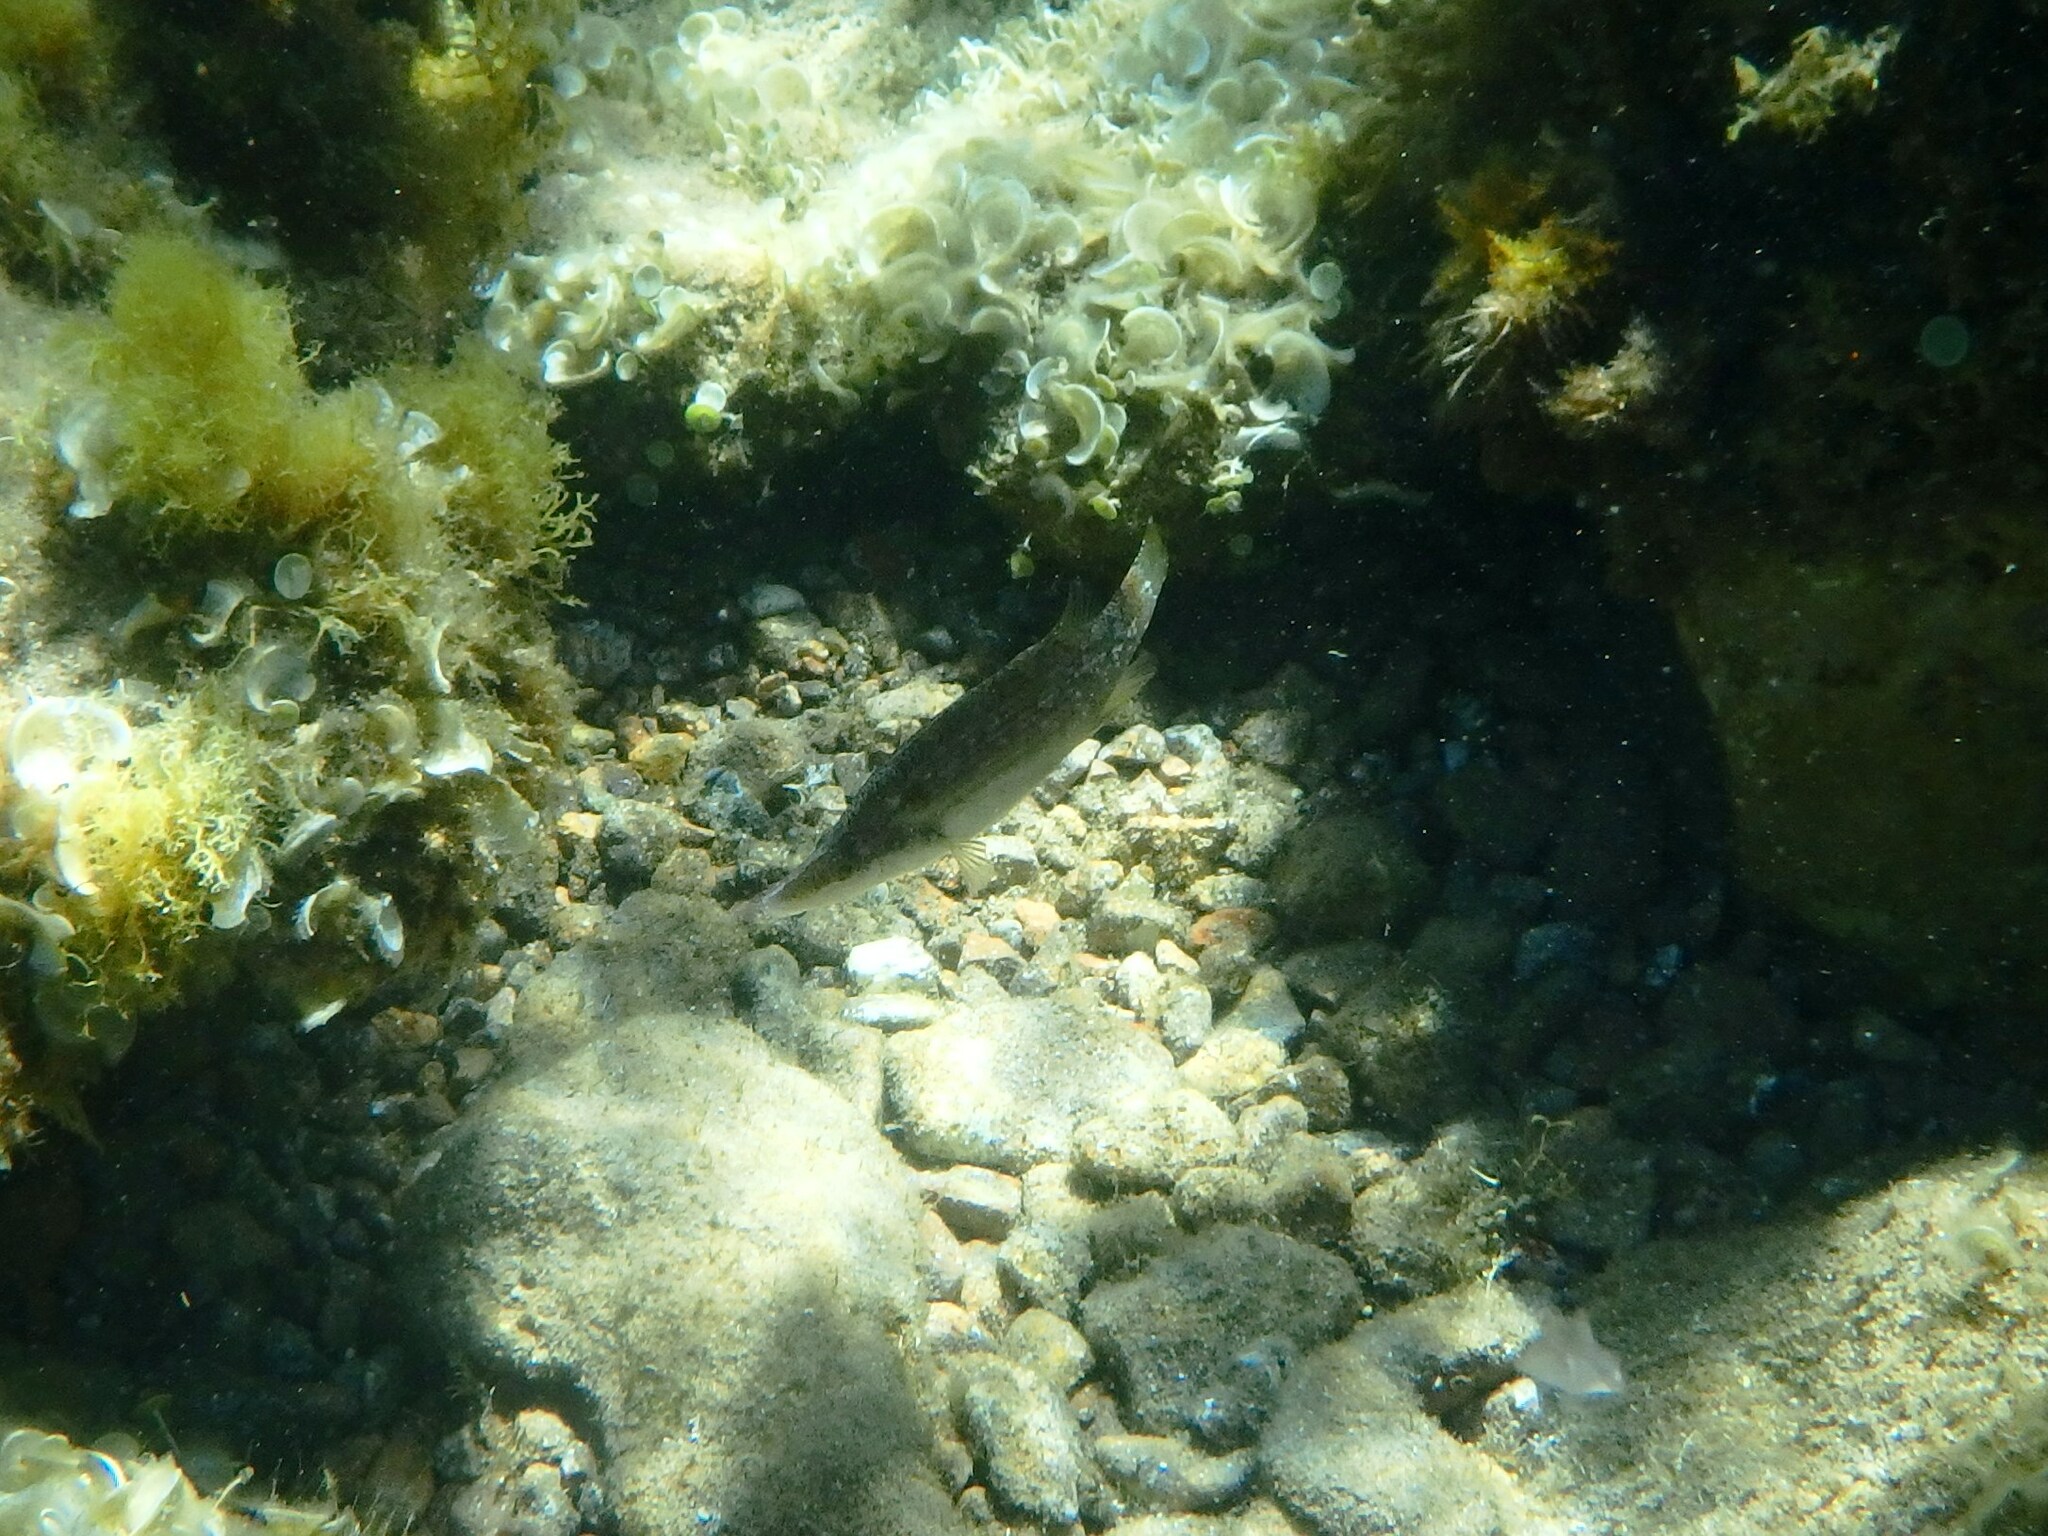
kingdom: Animalia
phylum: Chordata
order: Perciformes
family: Labridae
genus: Symphodus
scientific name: Symphodus rostratus
